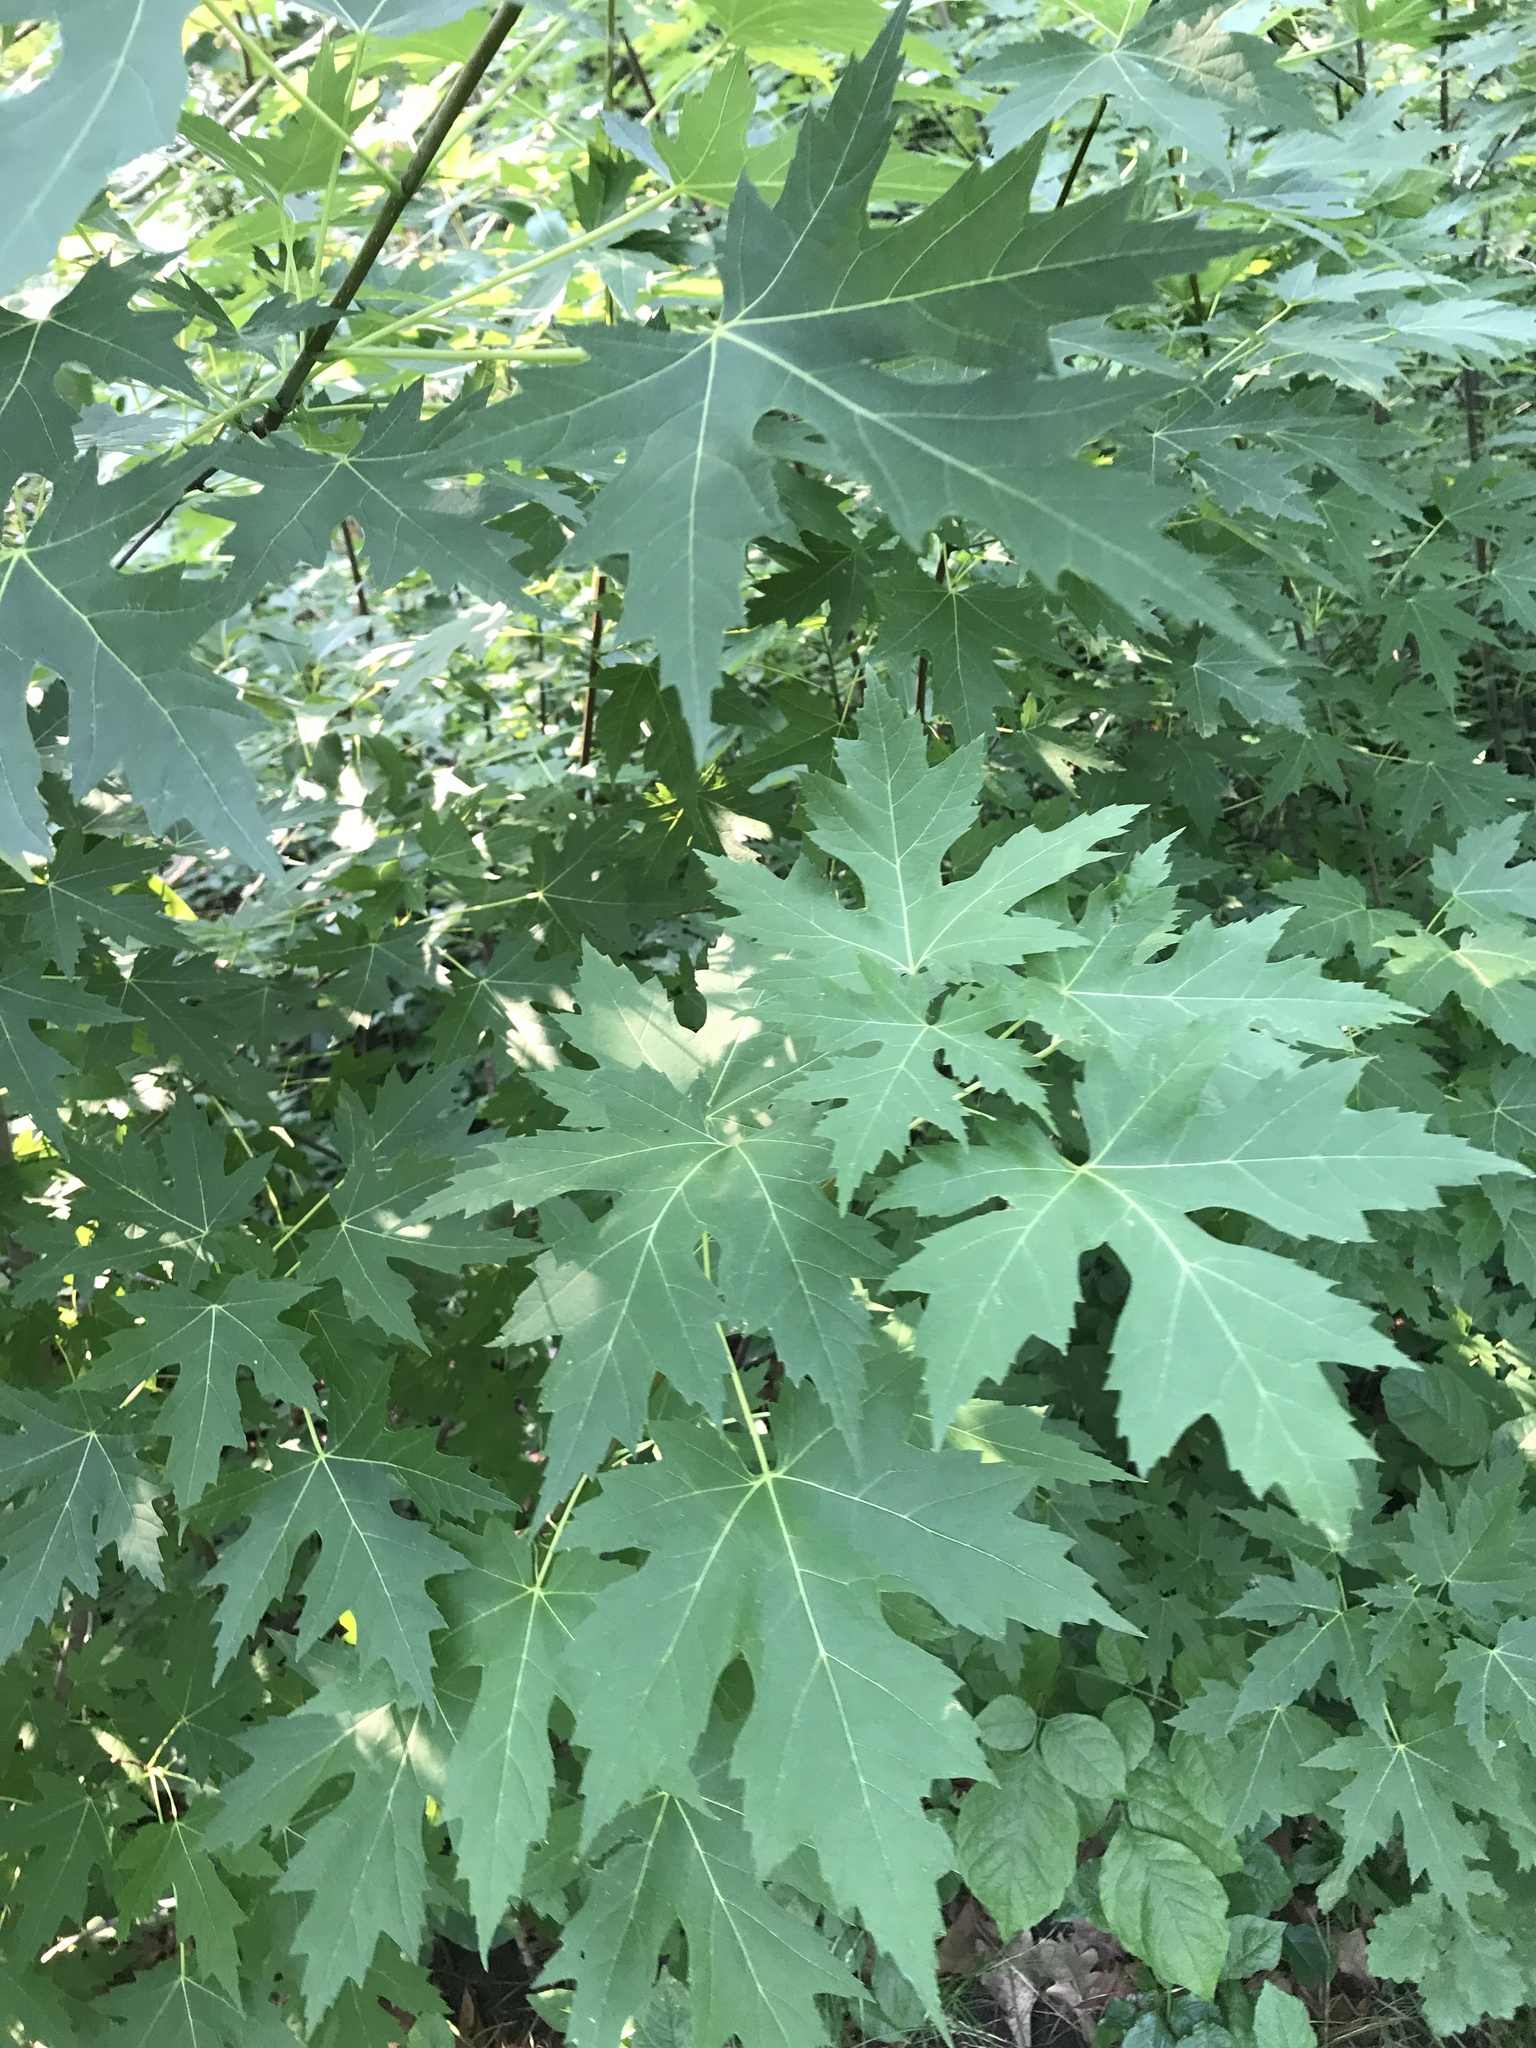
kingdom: Plantae
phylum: Tracheophyta
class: Magnoliopsida
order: Sapindales
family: Sapindaceae
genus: Acer
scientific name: Acer saccharinum
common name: Silver maple
